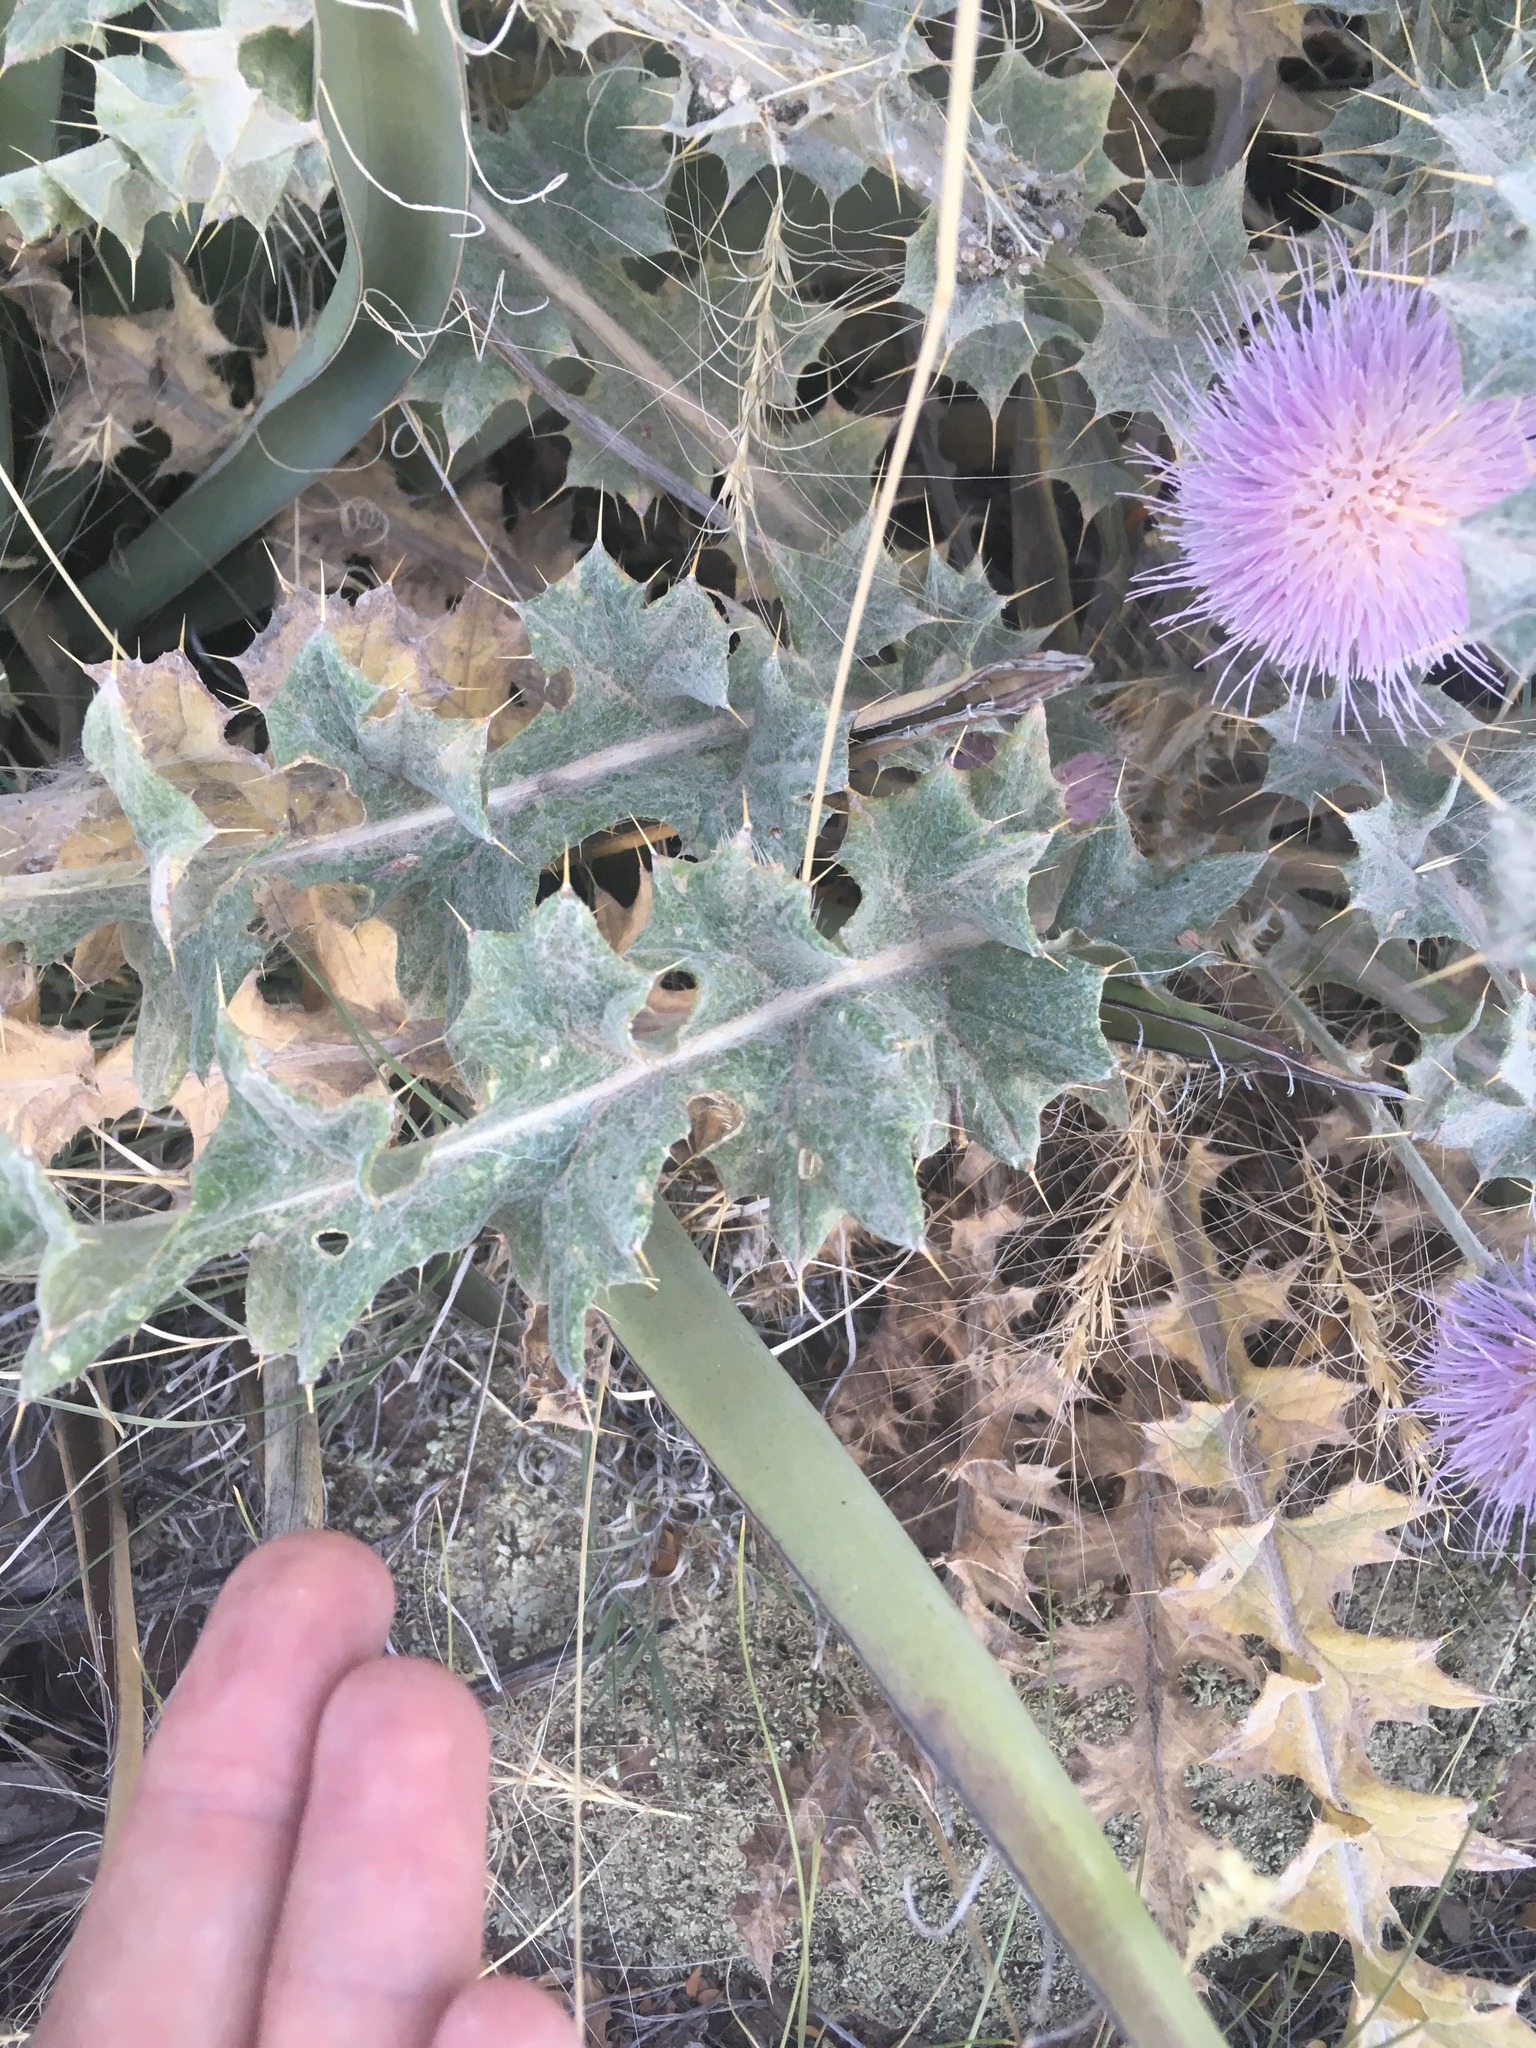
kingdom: Plantae
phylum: Tracheophyta
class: Magnoliopsida
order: Asterales
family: Asteraceae
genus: Cirsium
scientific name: Cirsium neomexicanum
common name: New mexico thistle
